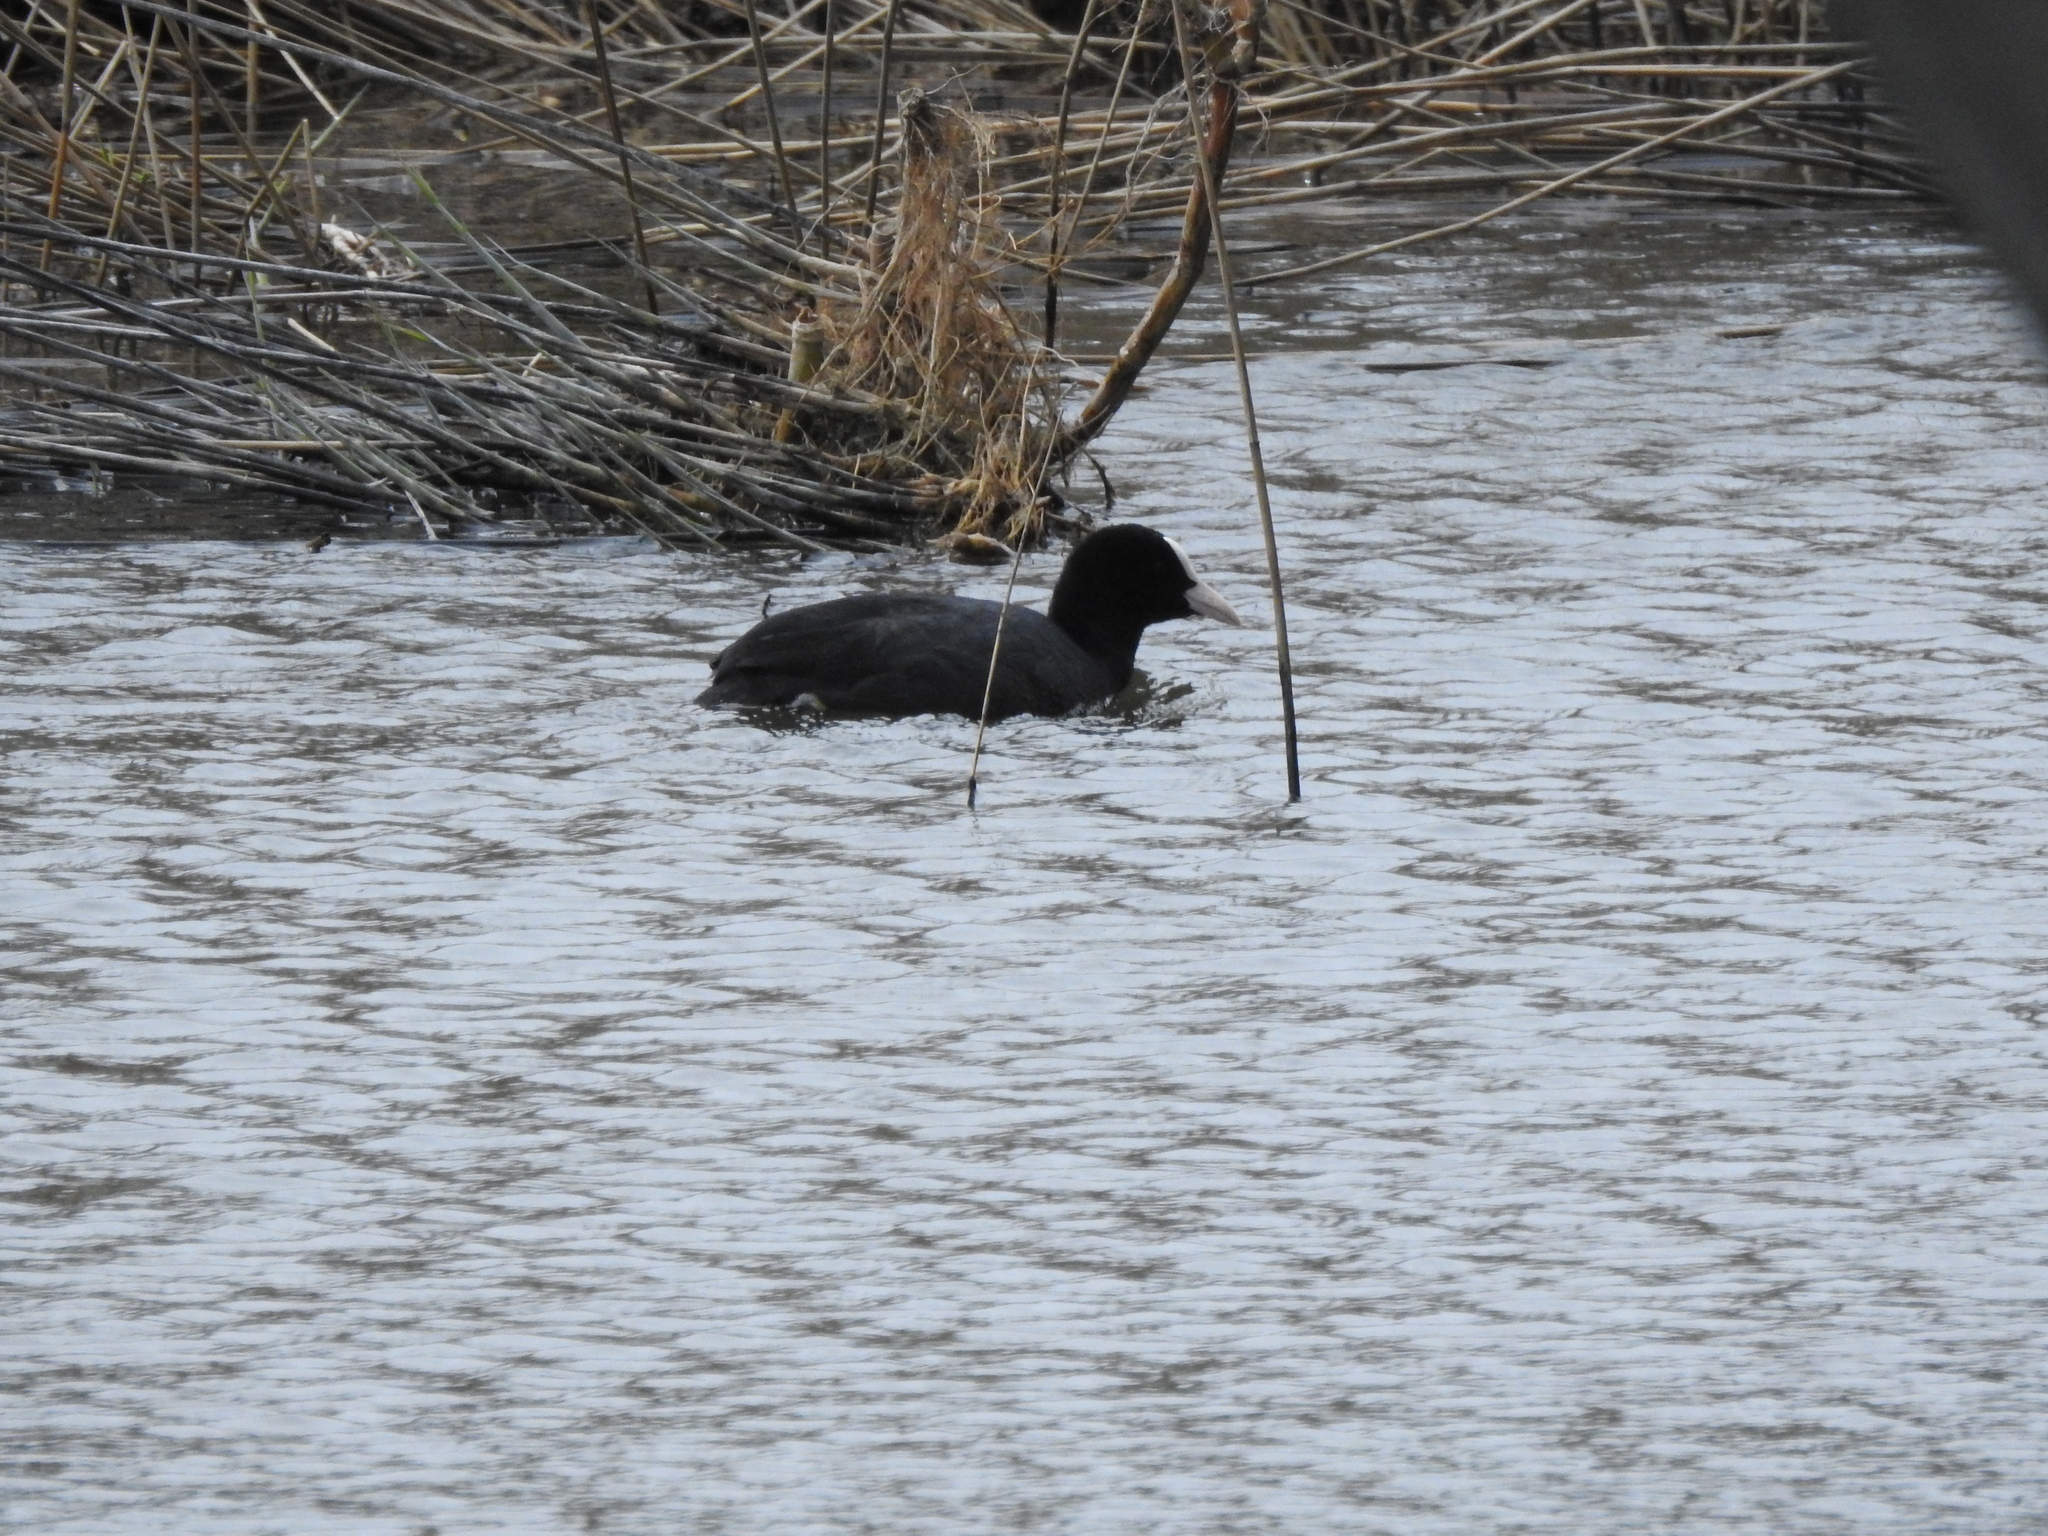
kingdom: Animalia
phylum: Chordata
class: Aves
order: Gruiformes
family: Rallidae
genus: Fulica
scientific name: Fulica atra
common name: Eurasian coot
